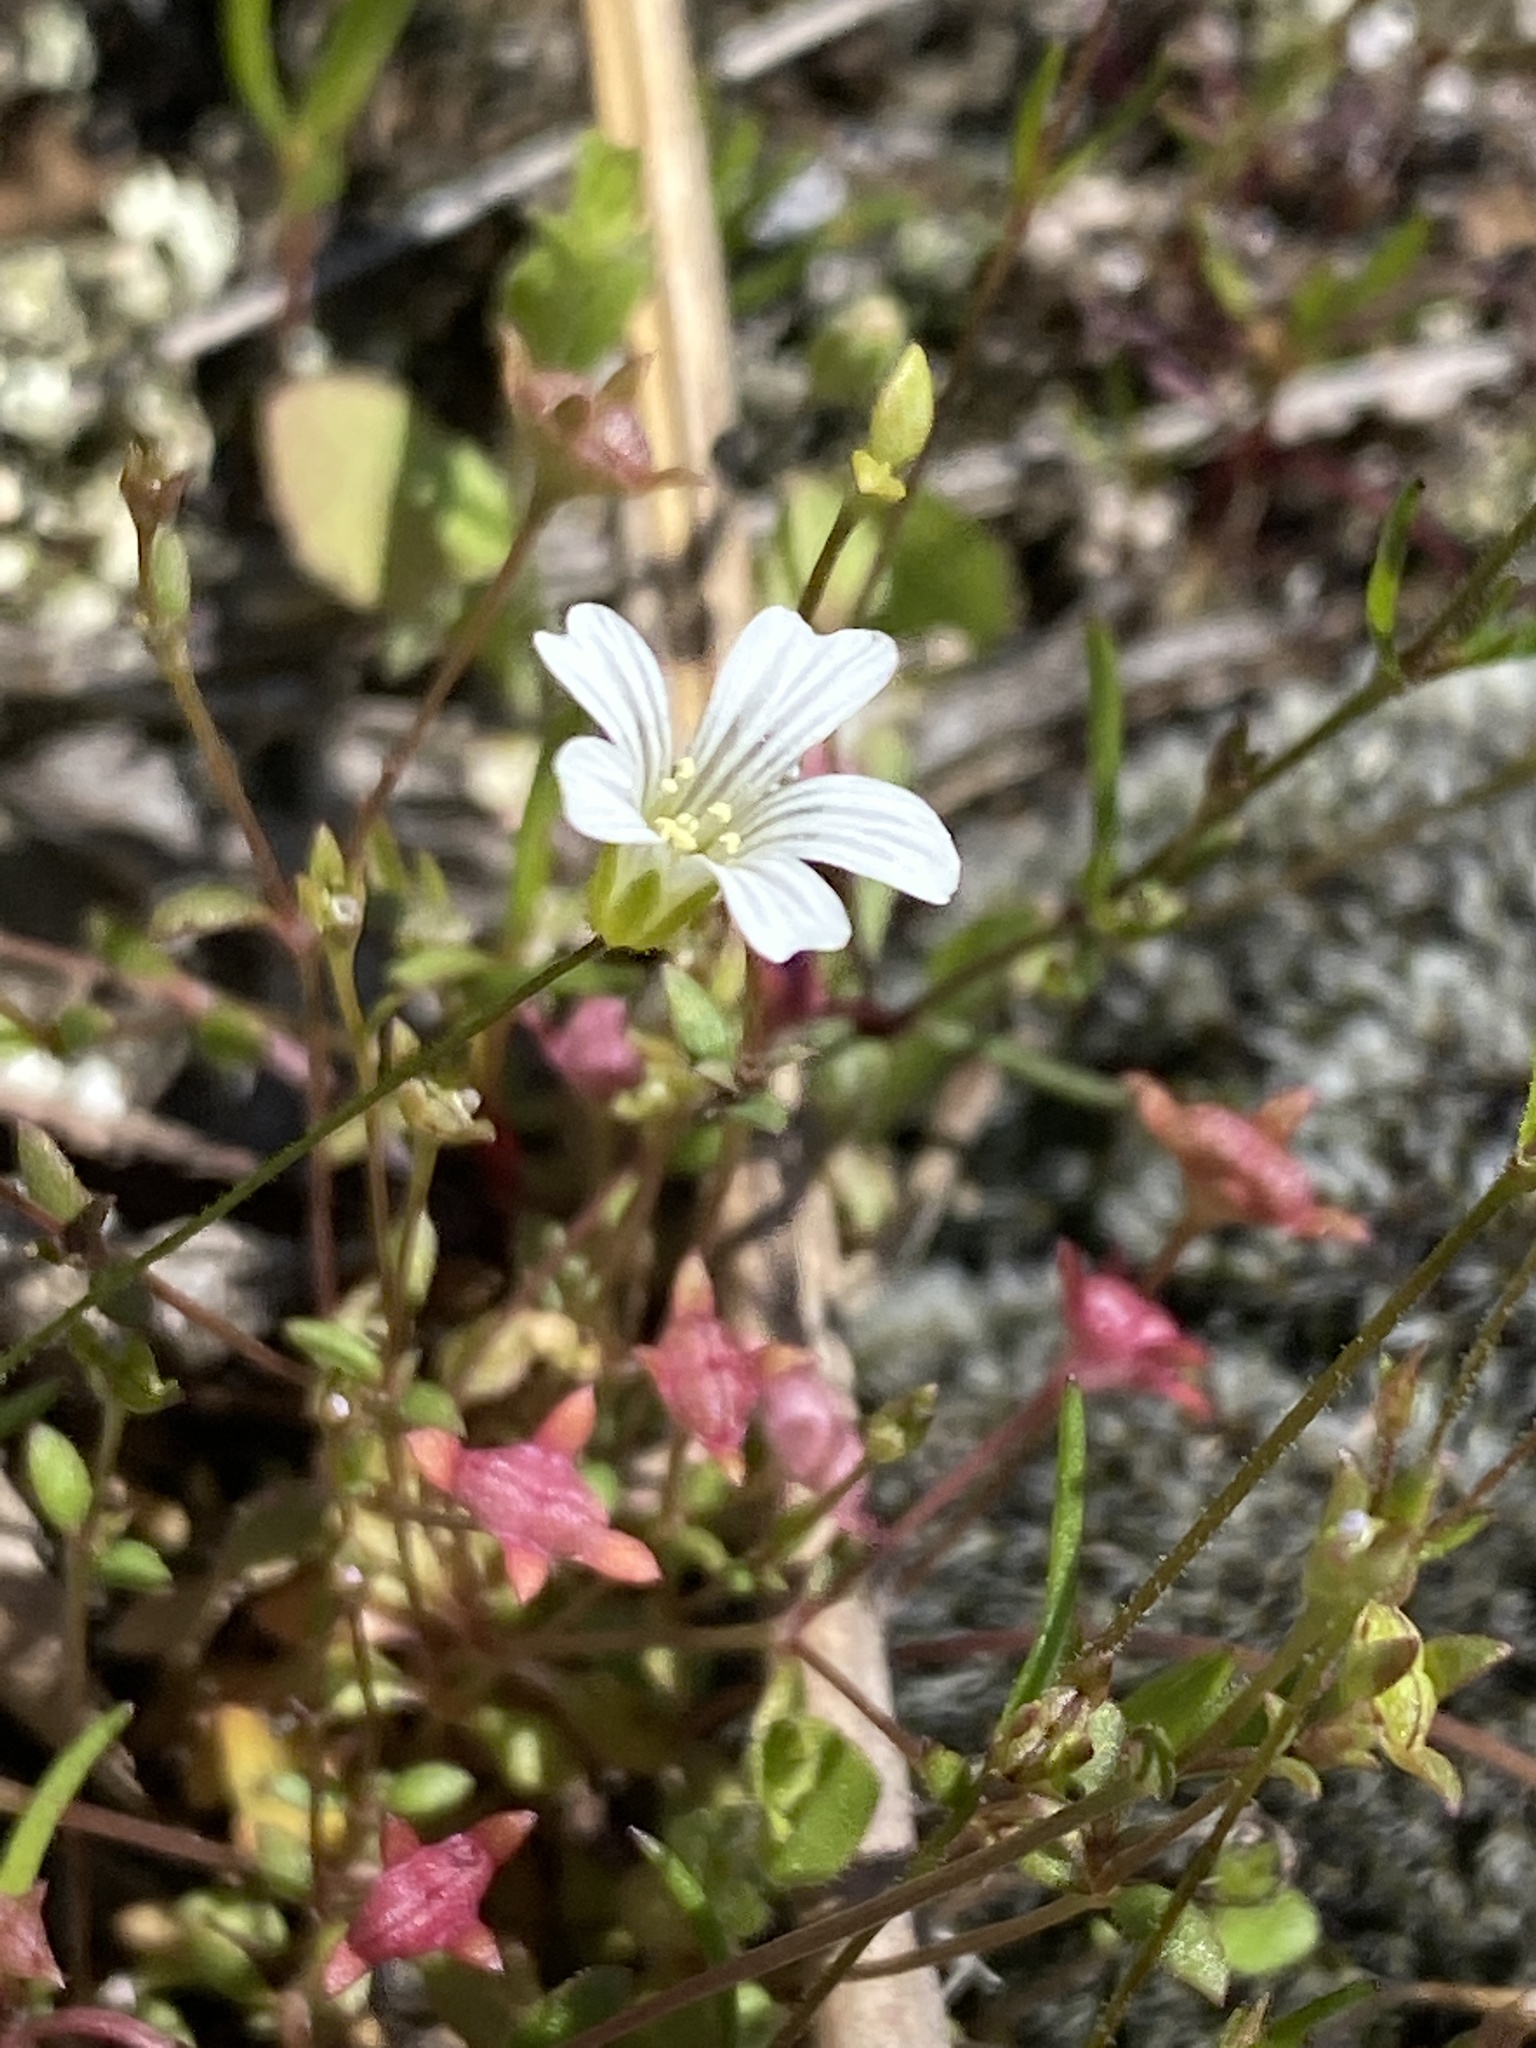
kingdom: Plantae
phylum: Tracheophyta
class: Magnoliopsida
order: Caryophyllales
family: Caryophyllaceae
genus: Mononeuria
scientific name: Mononeuria patula
